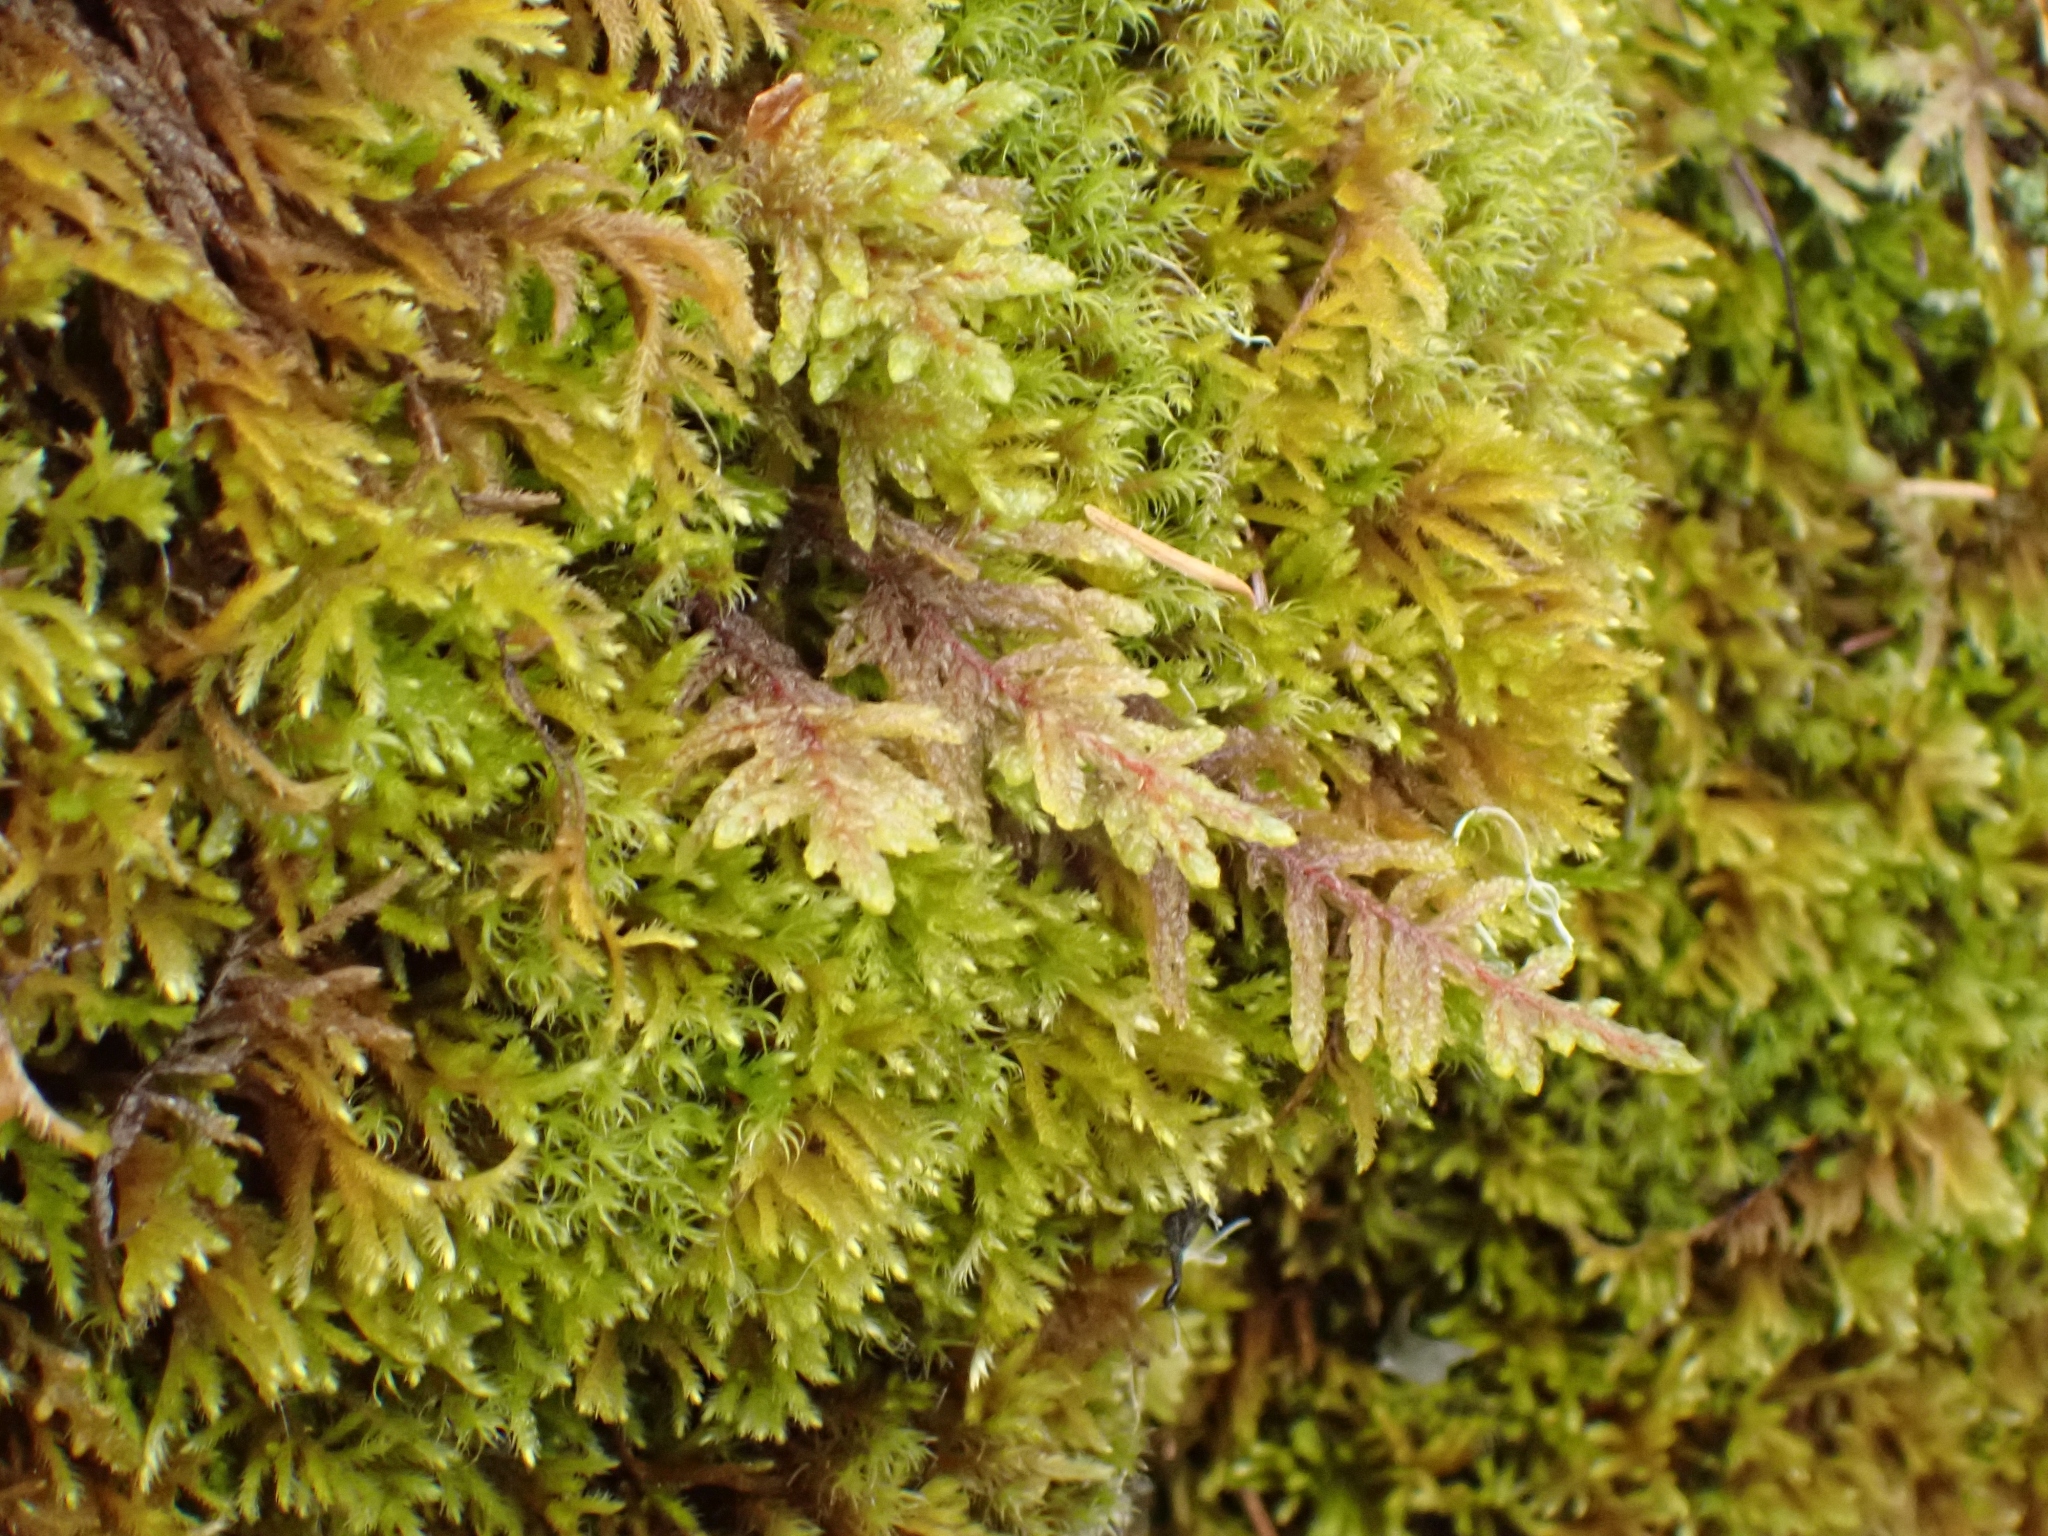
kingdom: Plantae
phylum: Bryophyta
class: Bryopsida
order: Hypnales
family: Hylocomiaceae
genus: Pleurozium
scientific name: Pleurozium schreberi
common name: Red-stemmed feather moss
